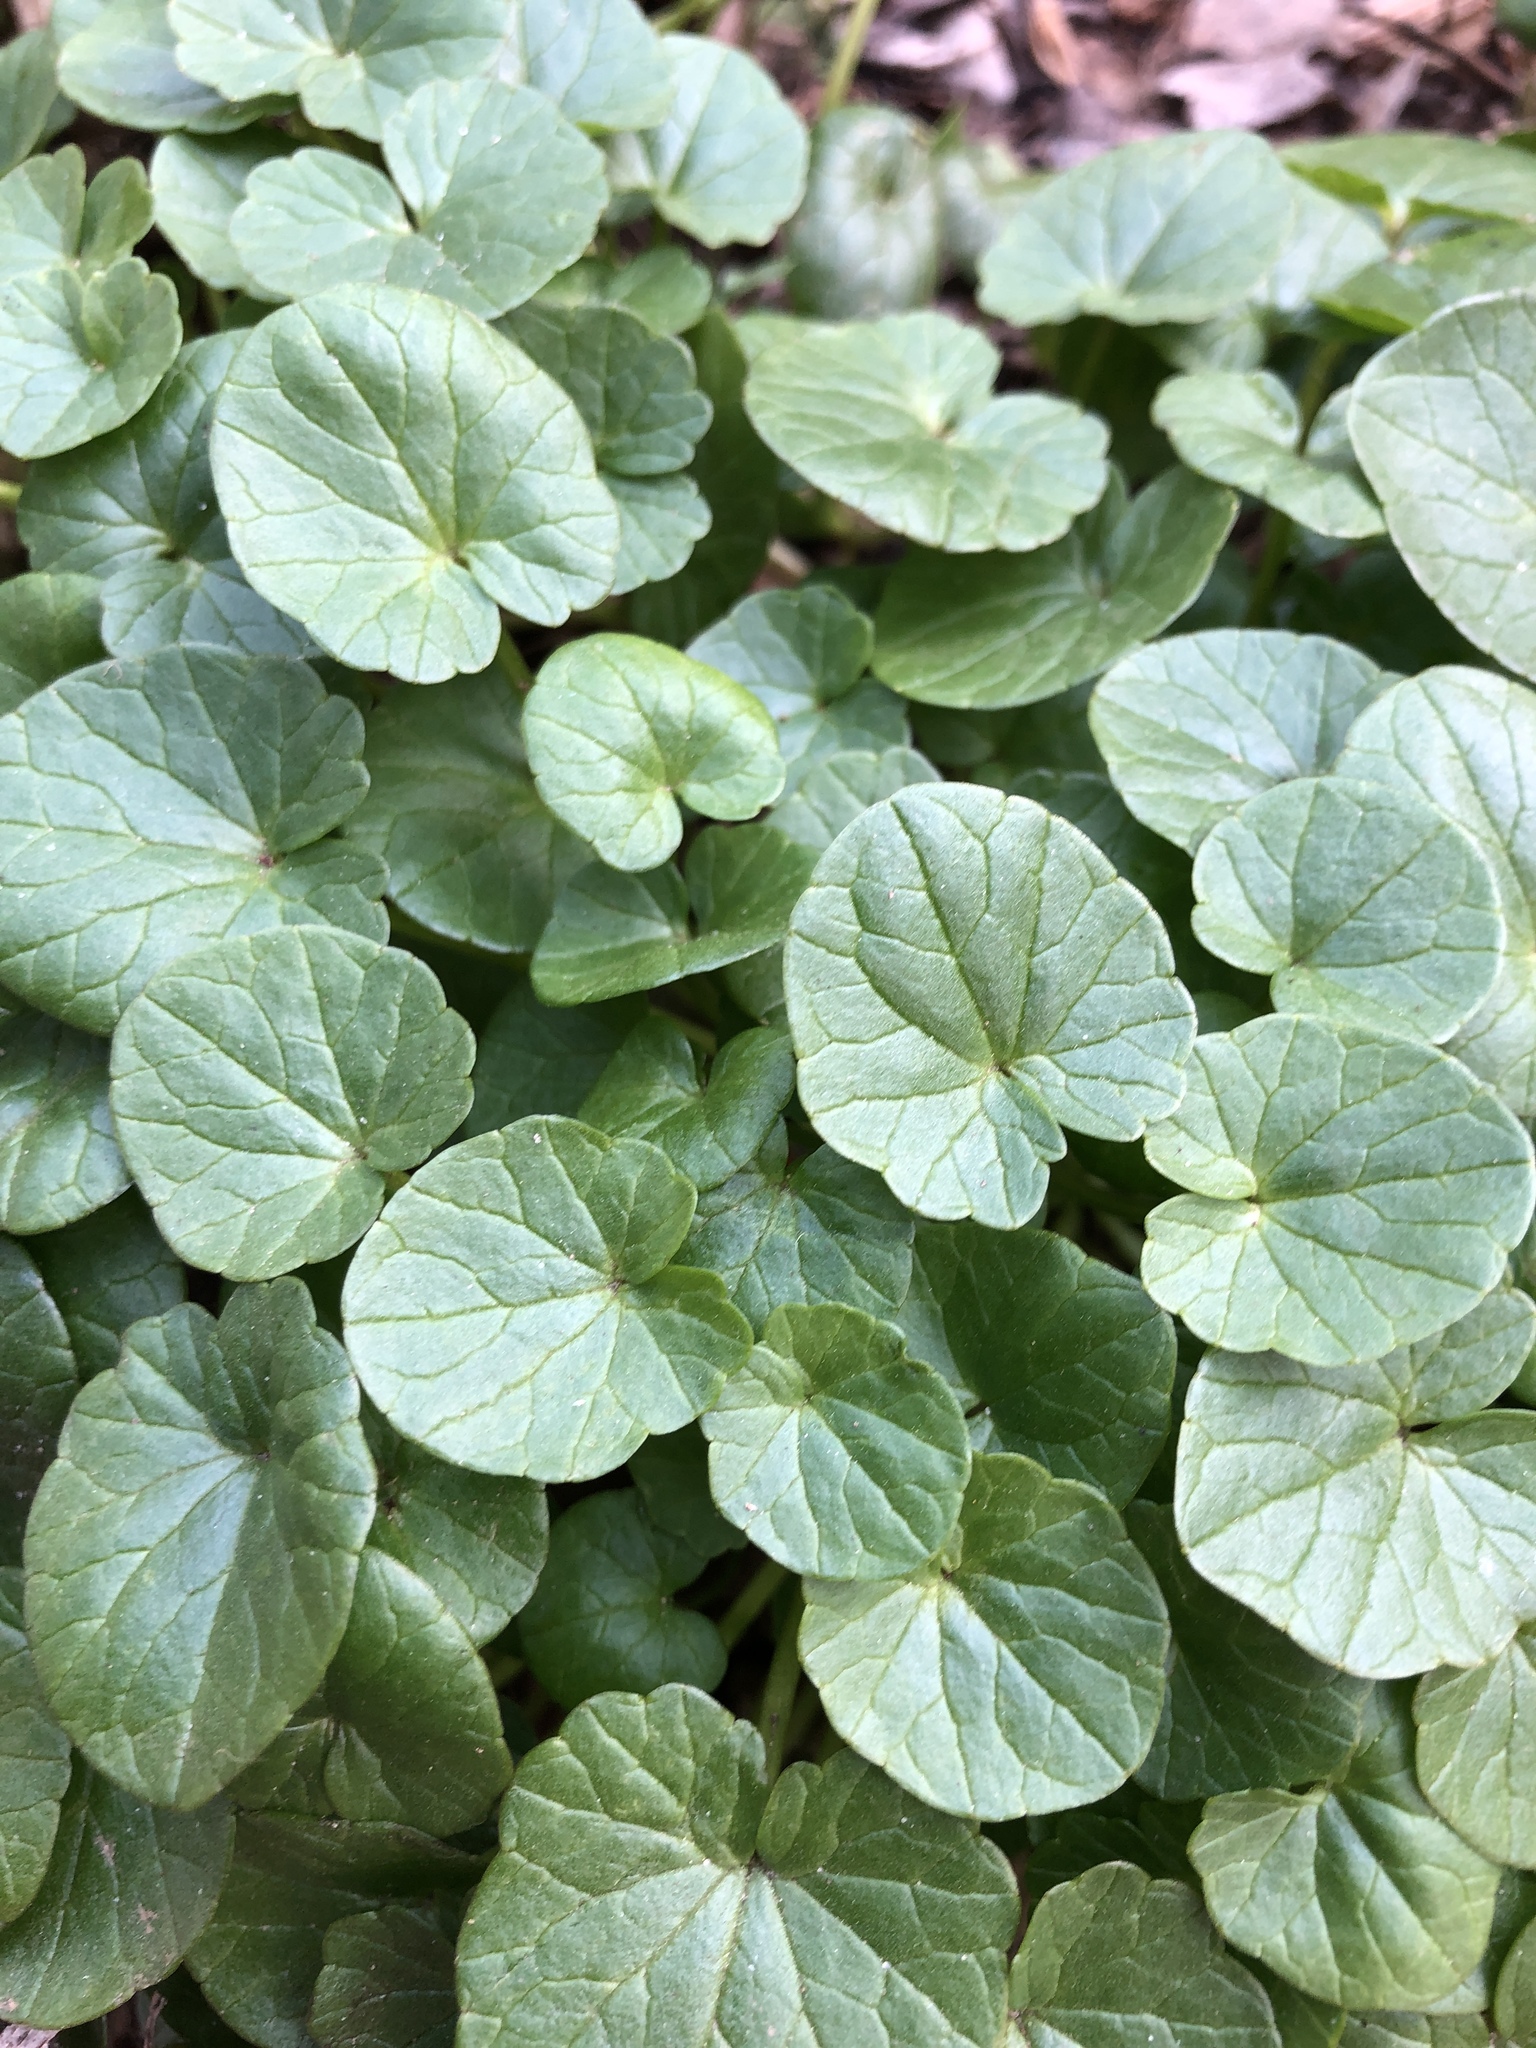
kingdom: Plantae
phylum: Tracheophyta
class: Magnoliopsida
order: Ranunculales
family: Ranunculaceae
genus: Ficaria
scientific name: Ficaria verna
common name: Lesser celandine
